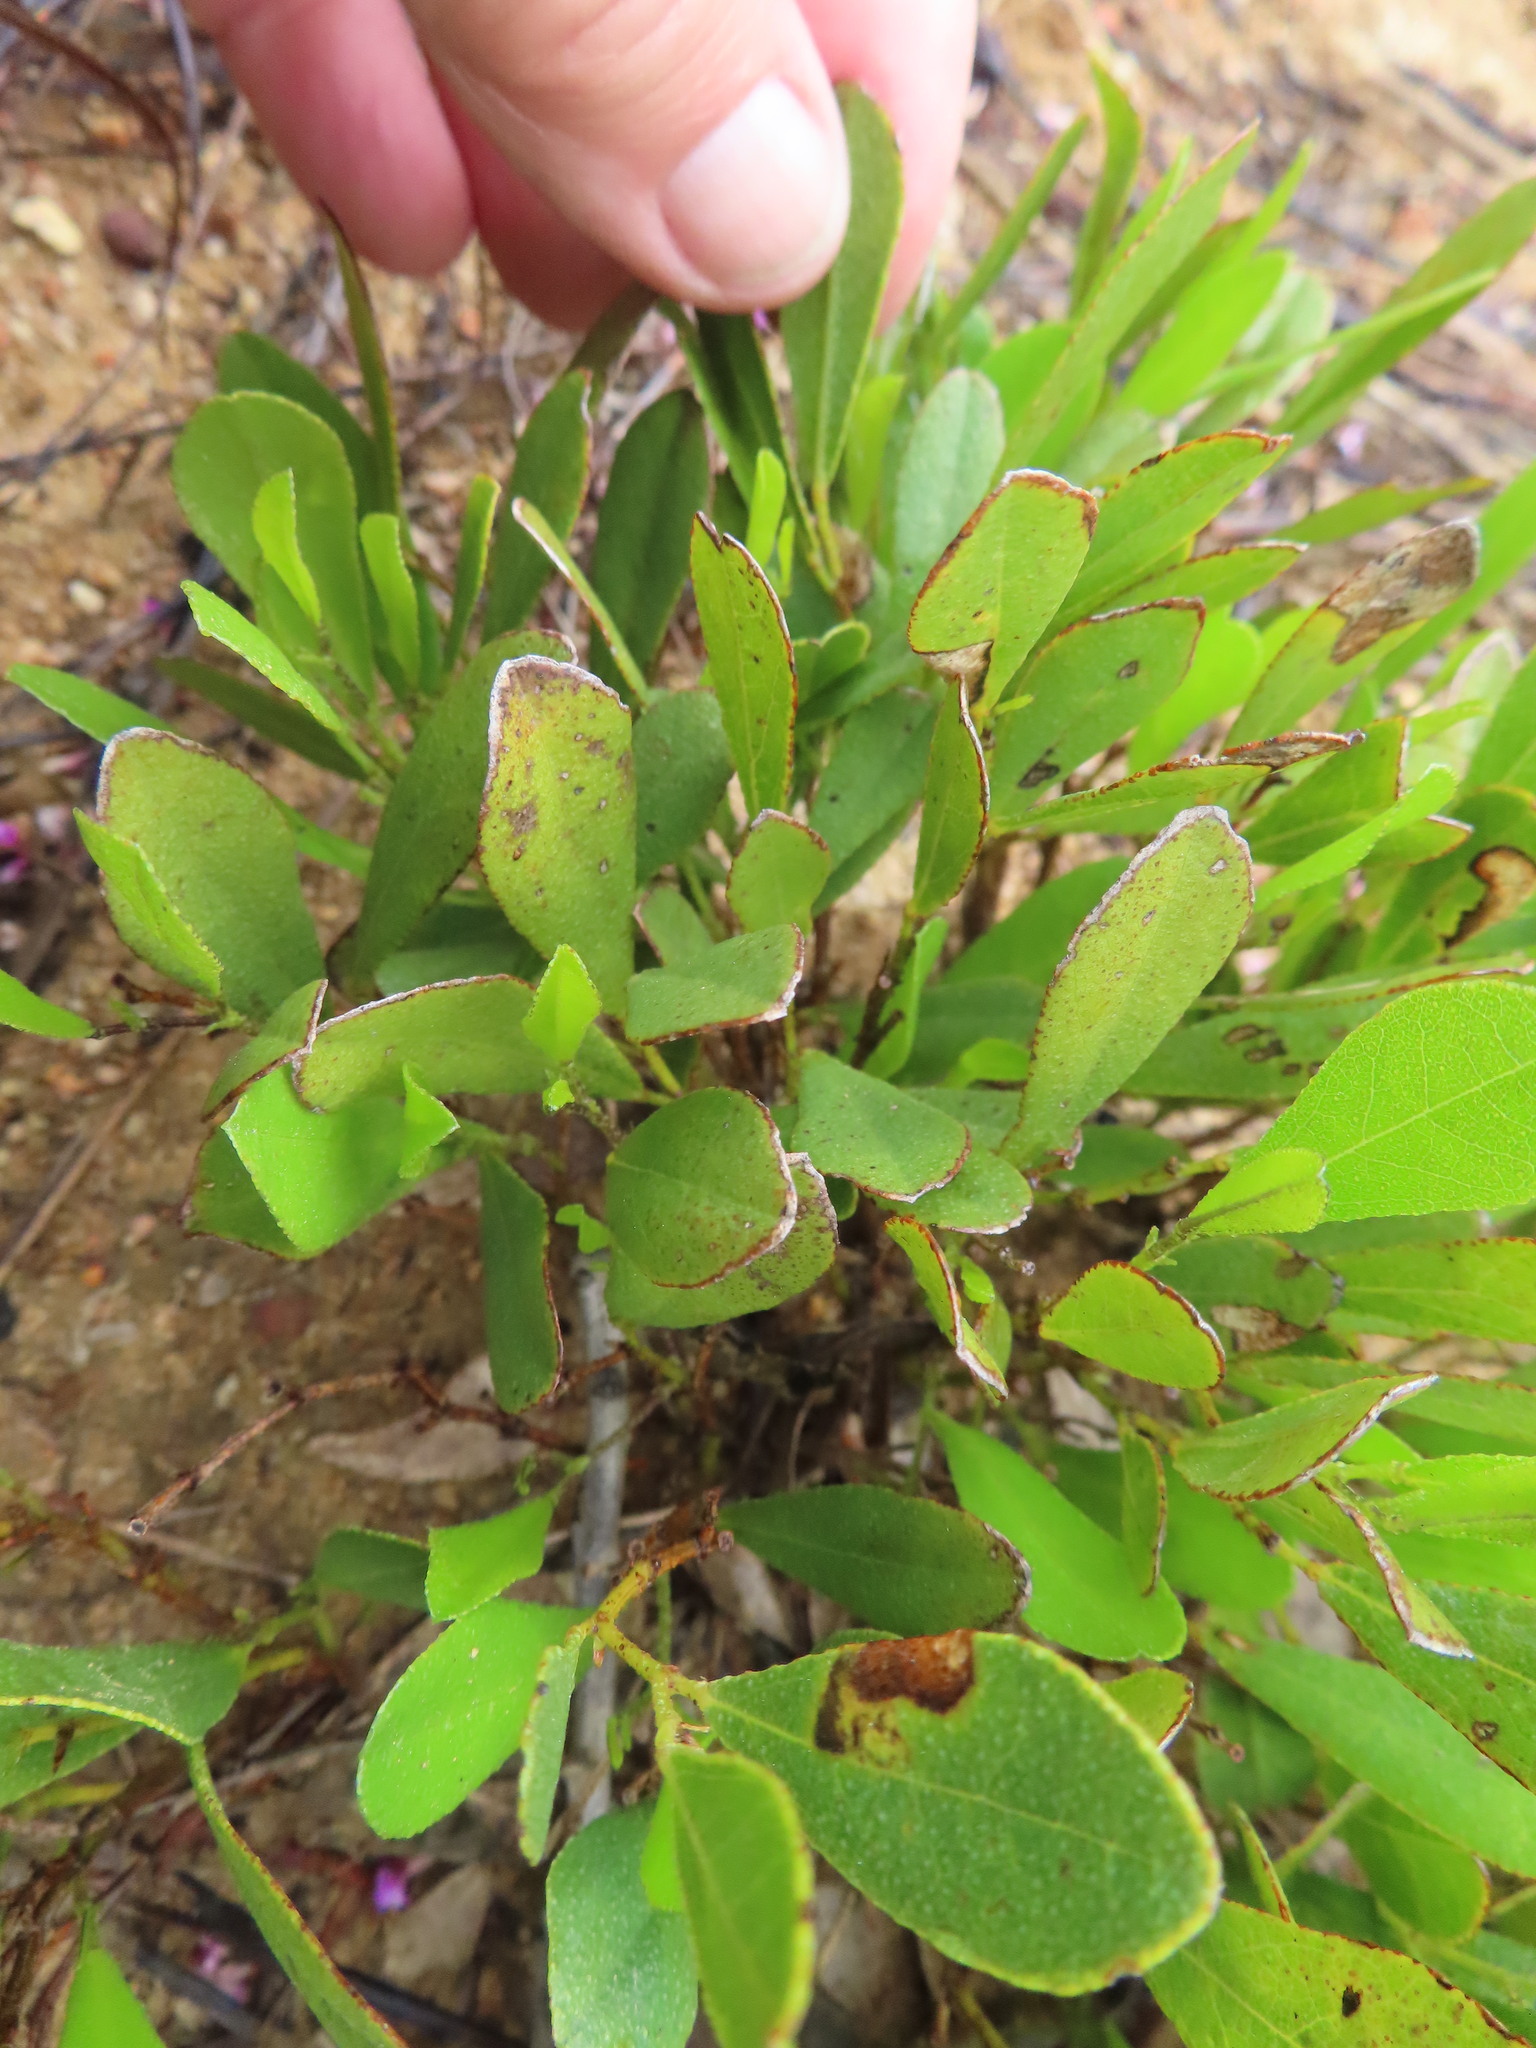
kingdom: Plantae
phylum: Tracheophyta
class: Magnoliopsida
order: Fabales
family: Fabaceae
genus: Psoralea
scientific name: Psoralea rotundifolia
